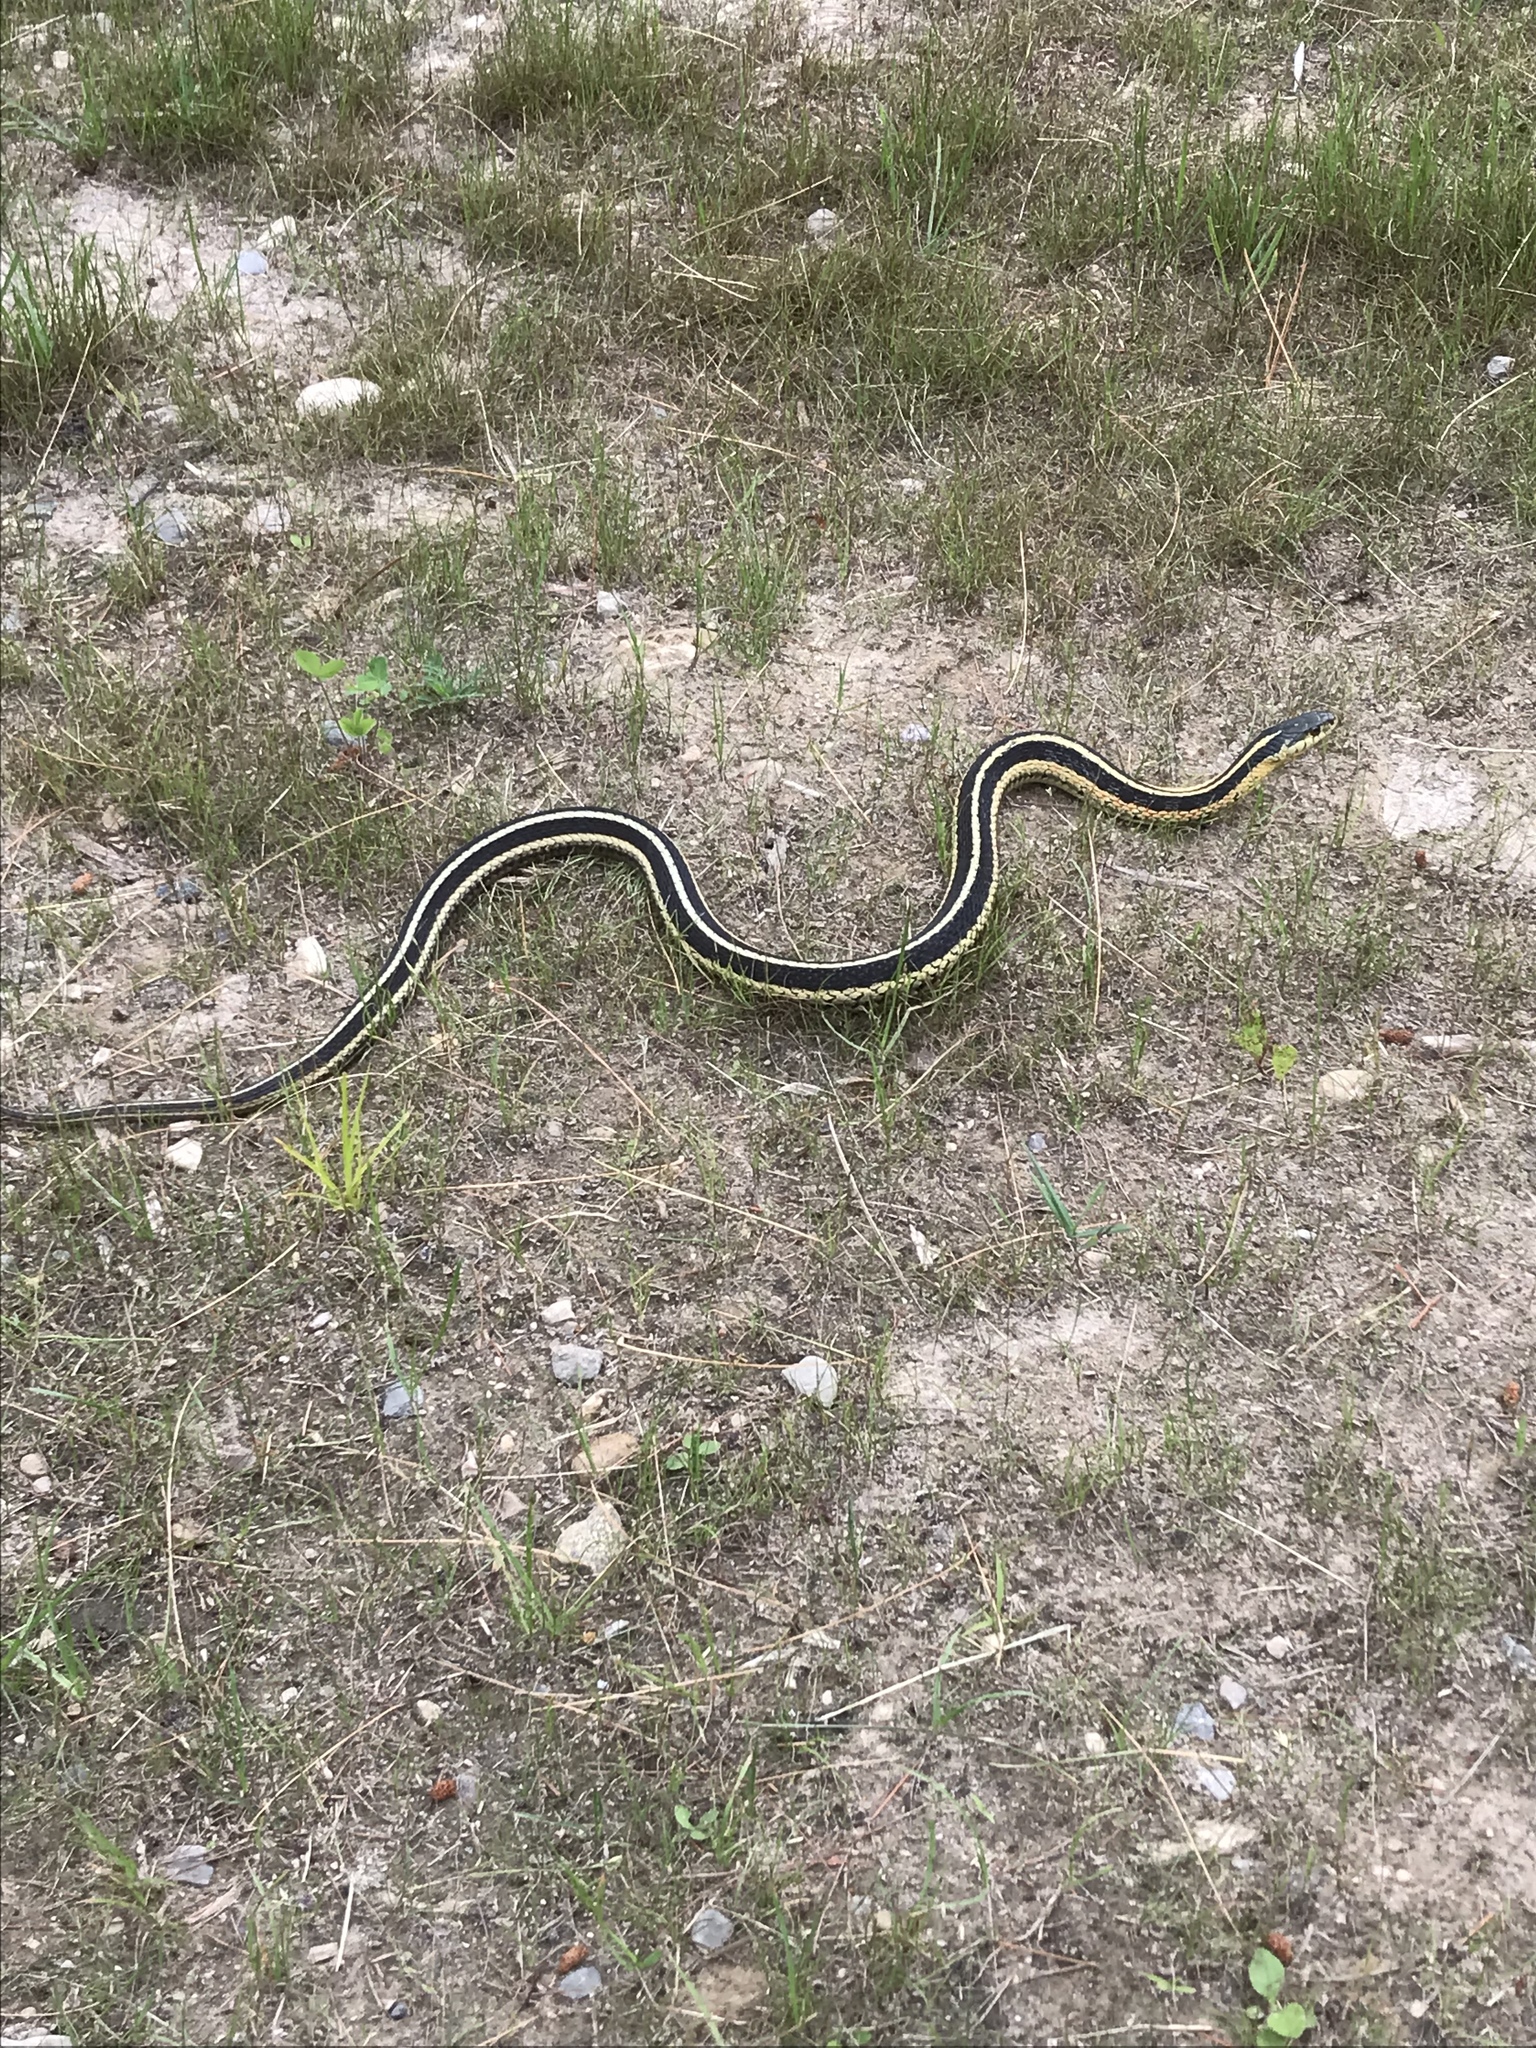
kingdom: Animalia
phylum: Chordata
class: Squamata
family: Colubridae
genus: Thamnophis
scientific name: Thamnophis sirtalis
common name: Common garter snake
